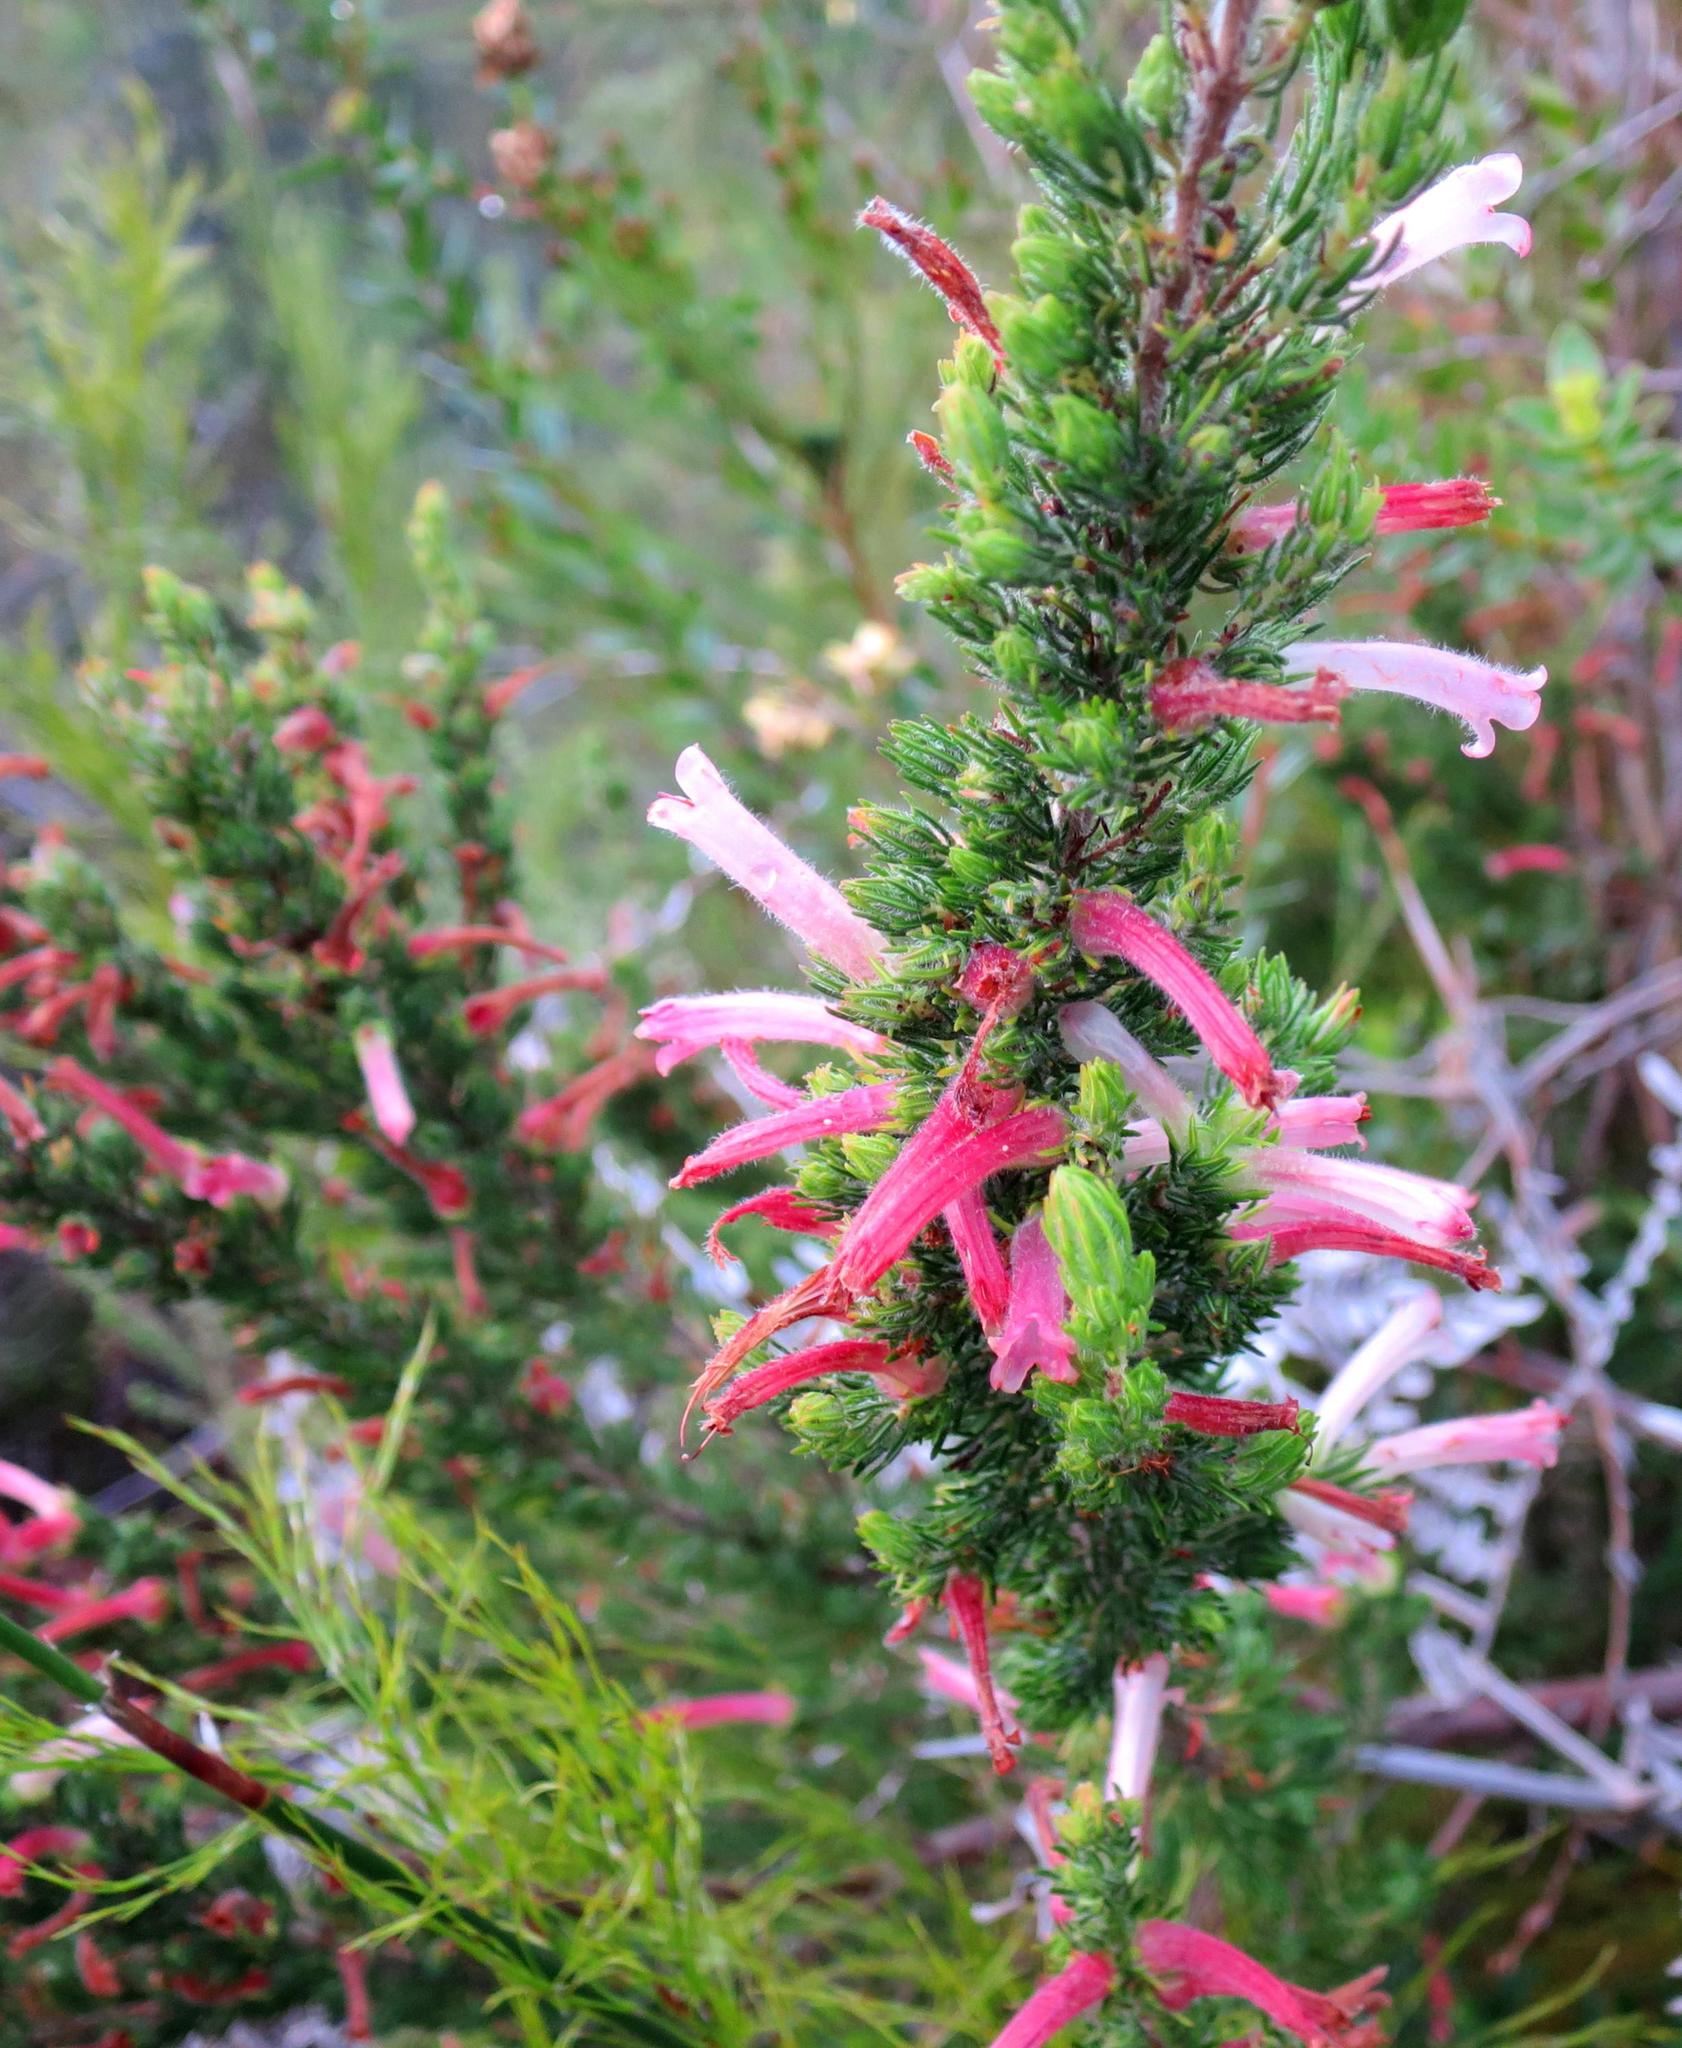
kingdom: Plantae
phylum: Tracheophyta
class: Magnoliopsida
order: Ericales
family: Ericaceae
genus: Erica
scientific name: Erica curviflora
